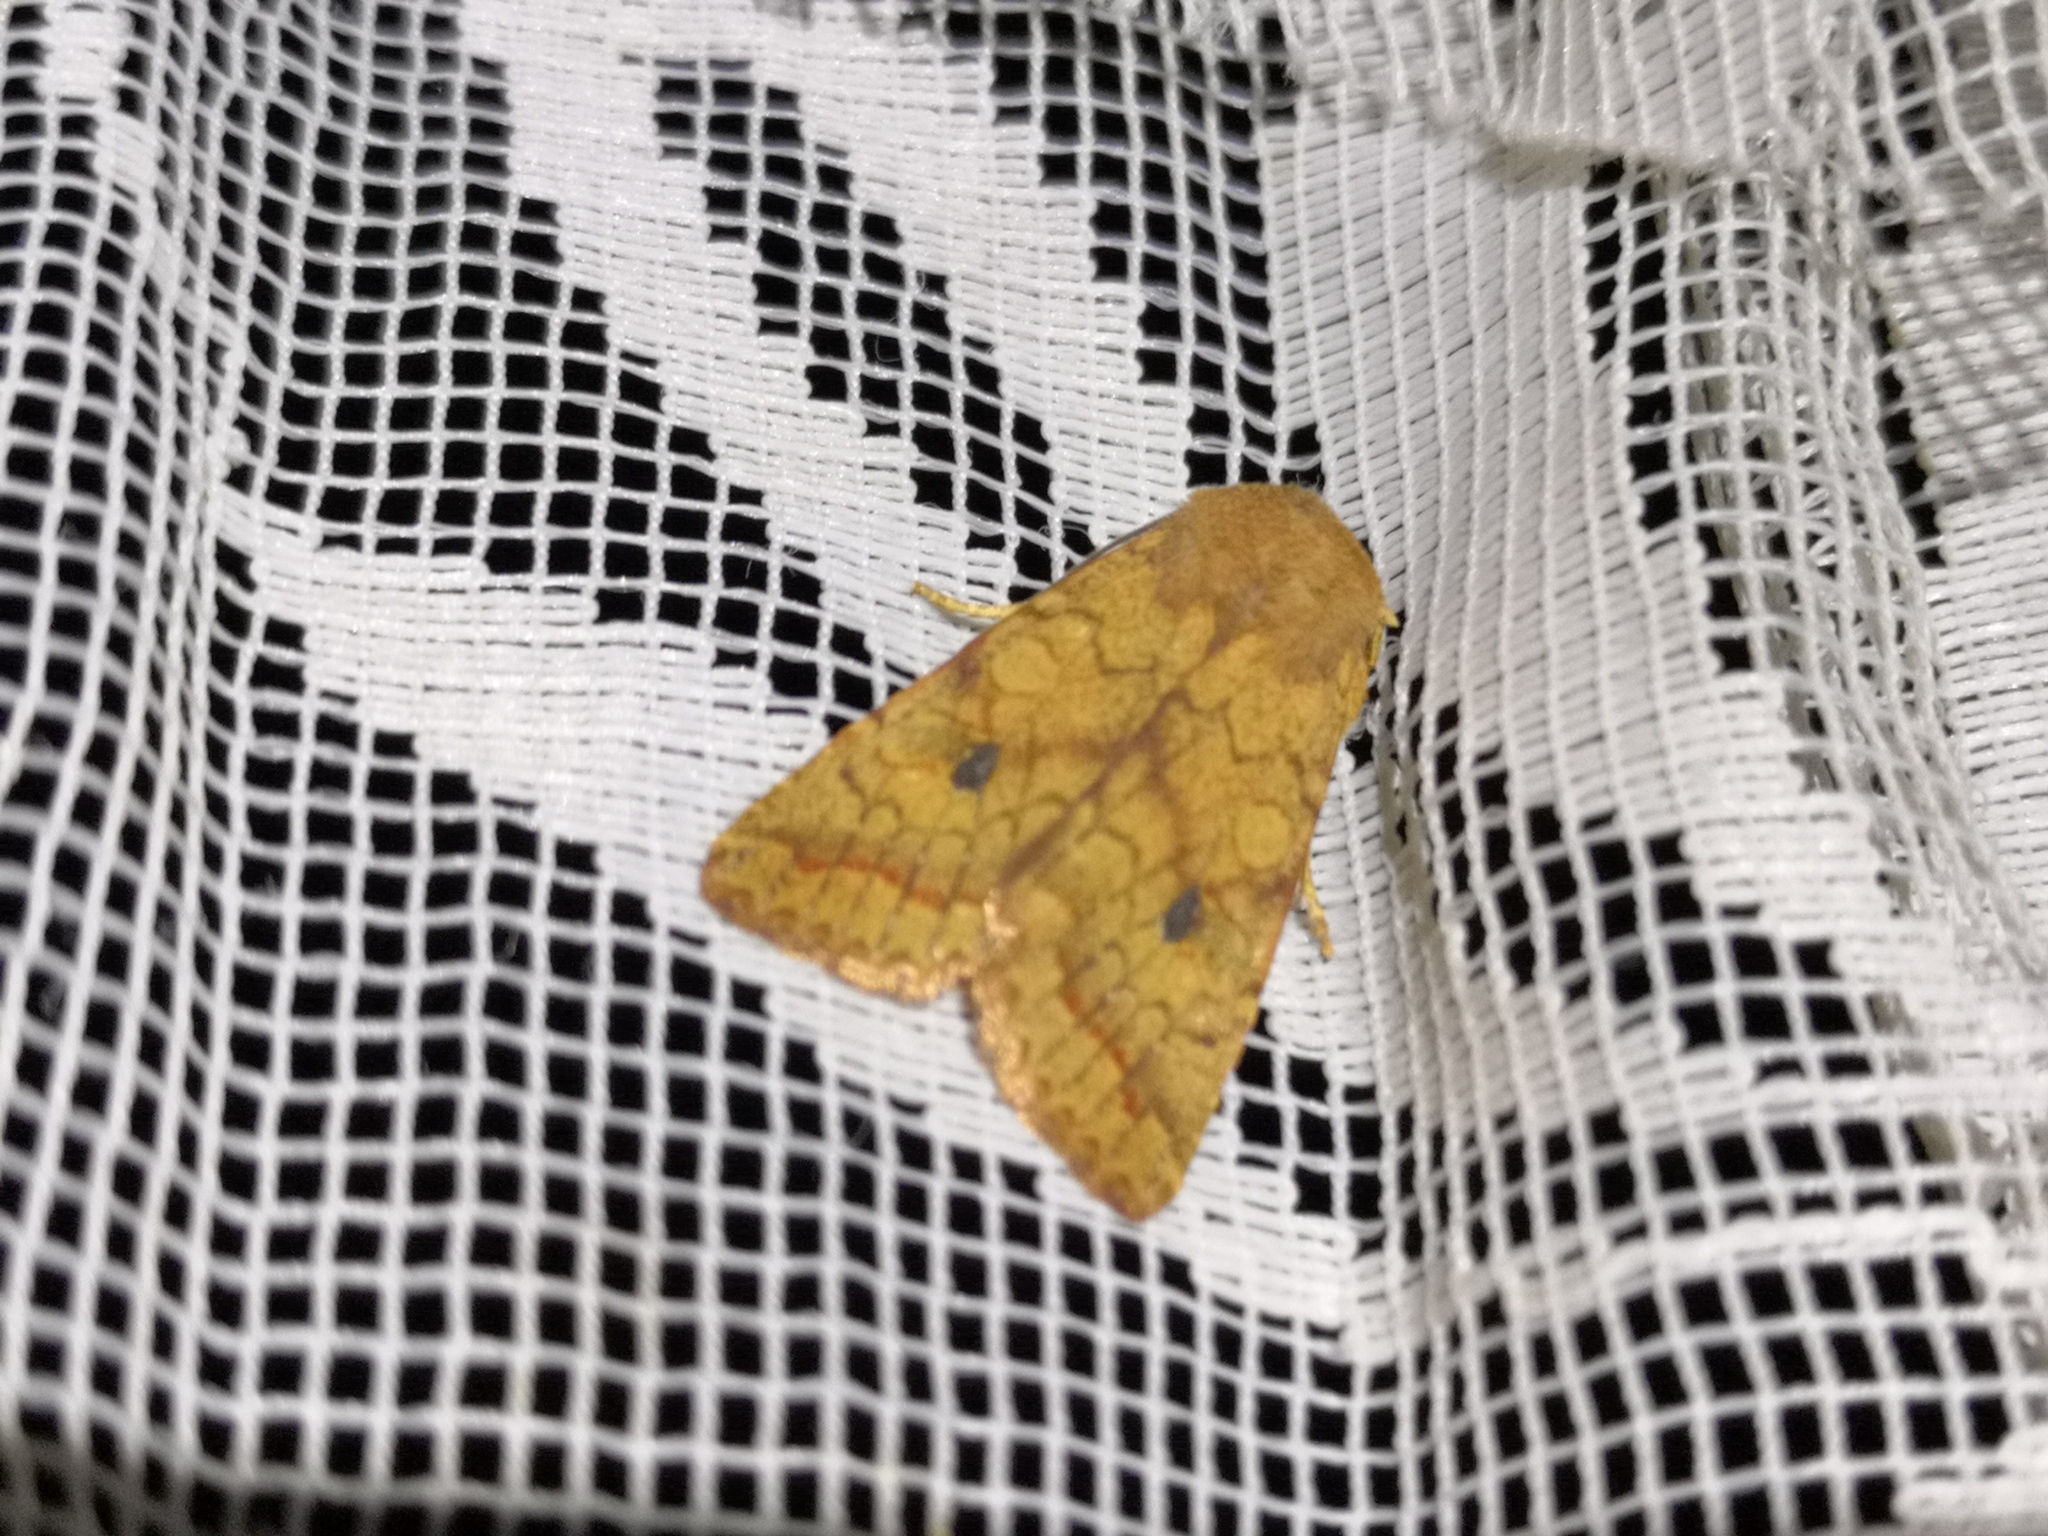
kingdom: Animalia
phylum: Arthropoda
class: Insecta
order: Lepidoptera
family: Noctuidae
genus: Sunira
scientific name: Sunira circellaris
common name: Brick
